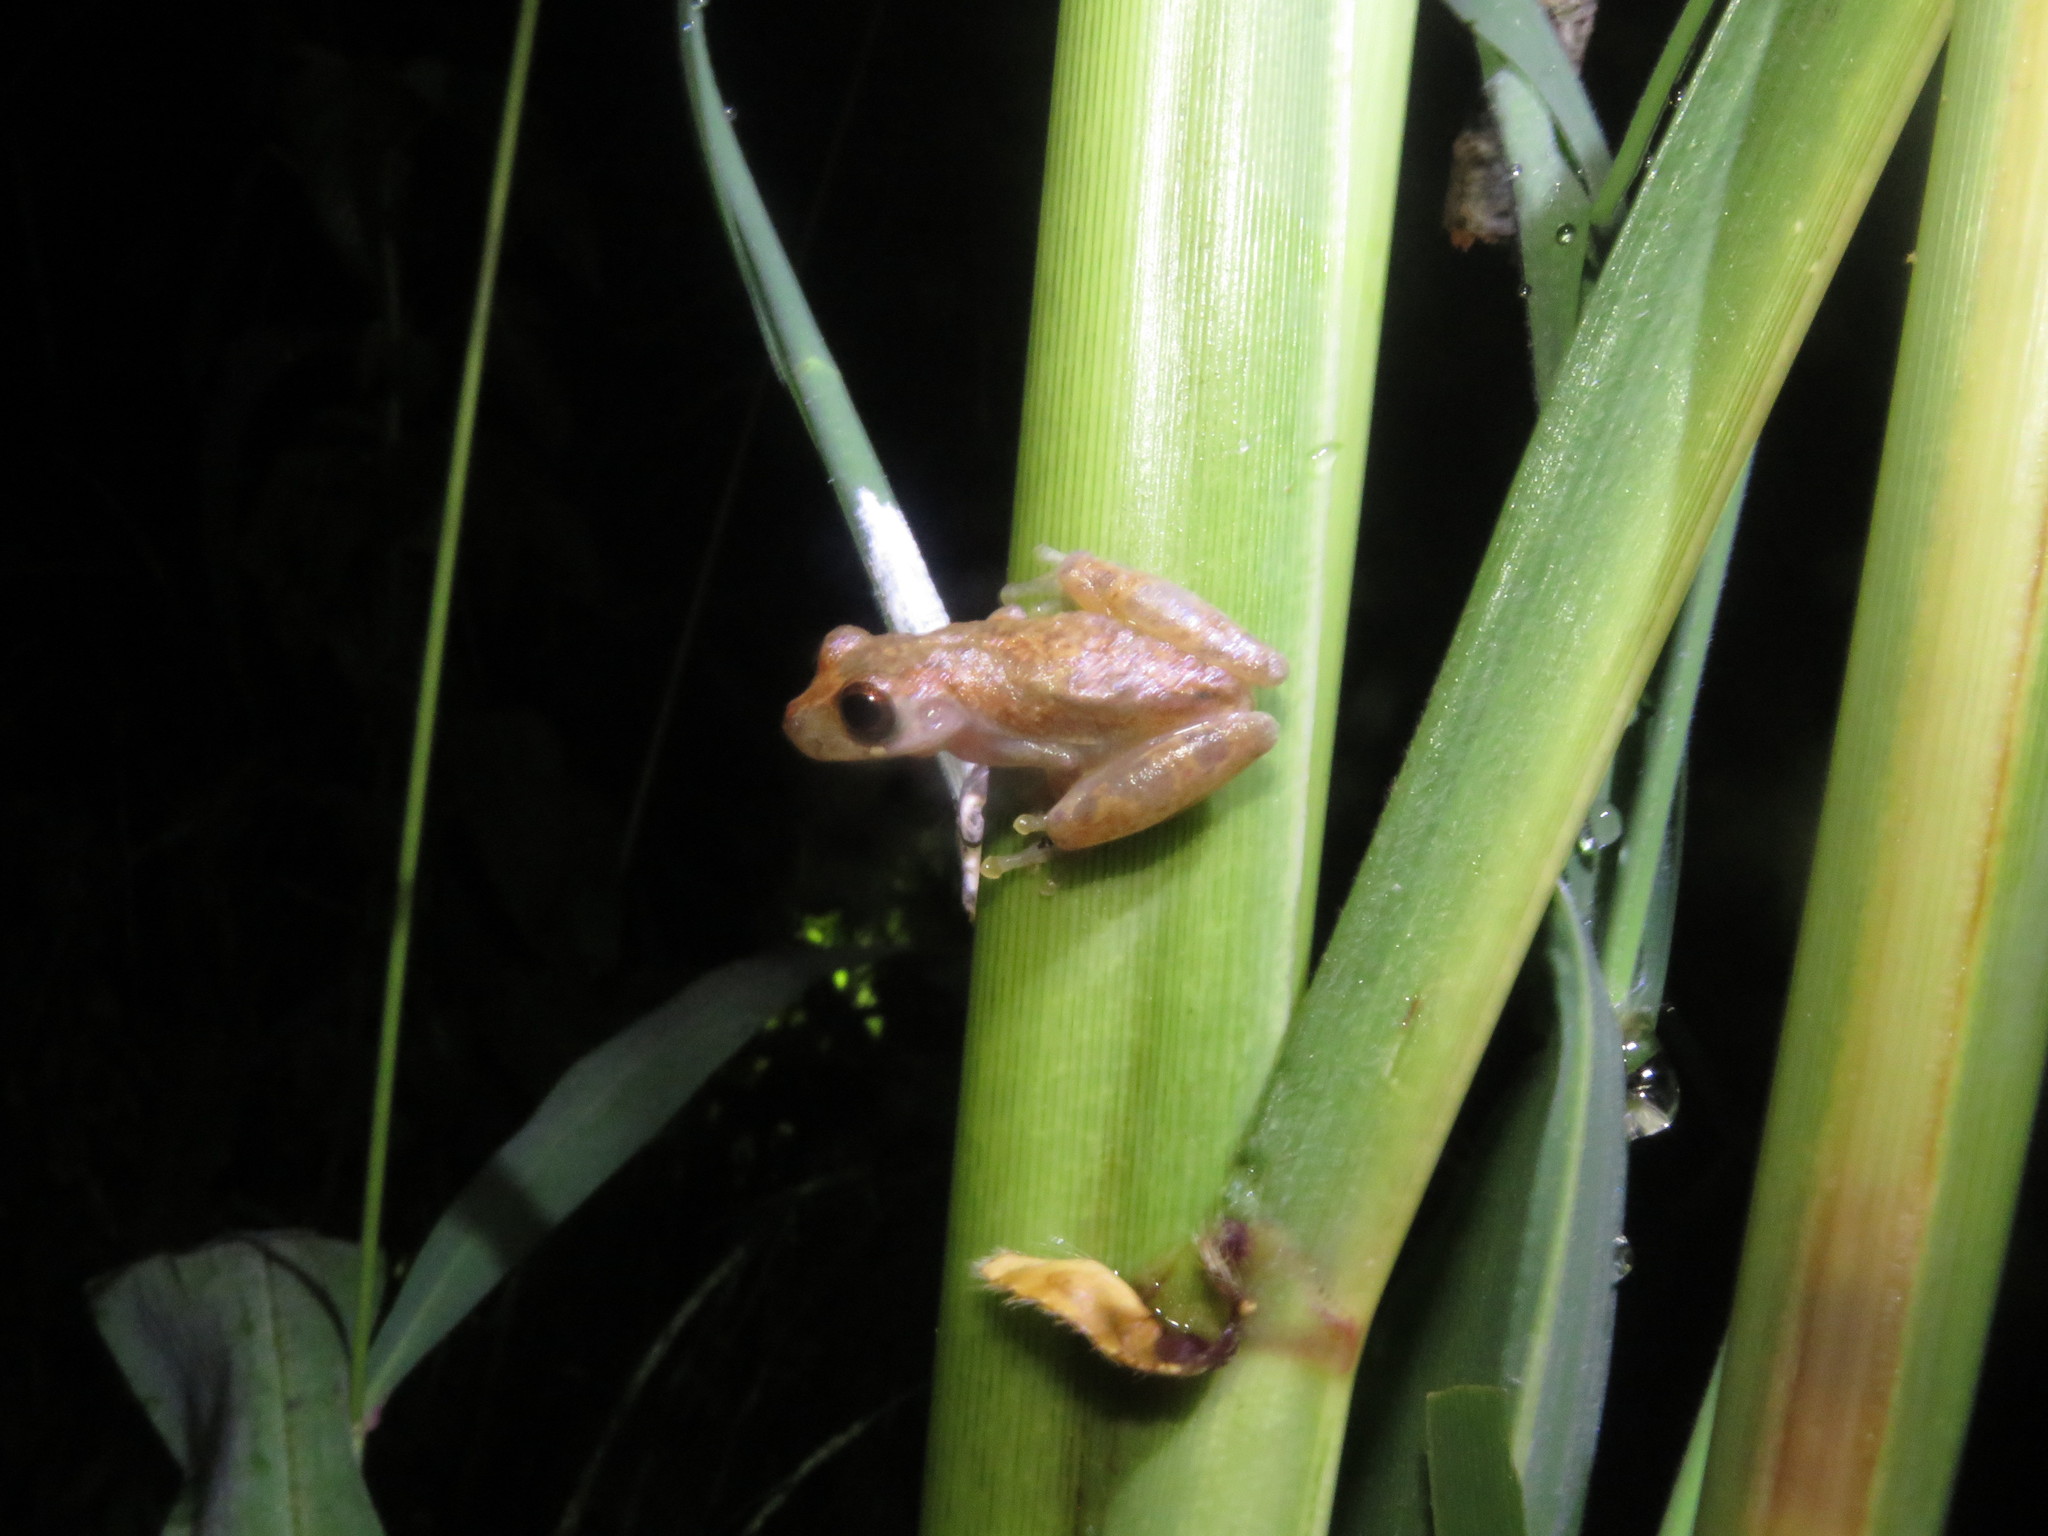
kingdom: Animalia
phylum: Chordata
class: Amphibia
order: Anura
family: Hylidae
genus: Dendropsophus
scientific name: Dendropsophus leali
